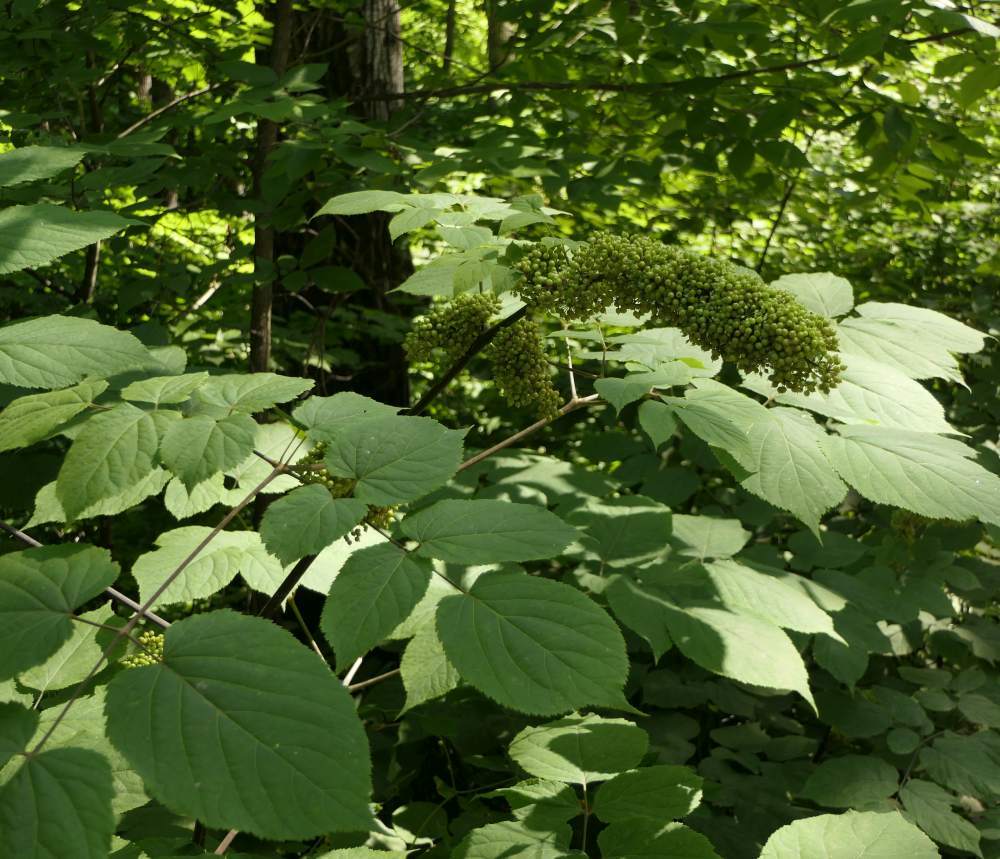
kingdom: Plantae
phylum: Tracheophyta
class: Magnoliopsida
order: Apiales
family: Araliaceae
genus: Aralia
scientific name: Aralia racemosa
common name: American-spikenard
